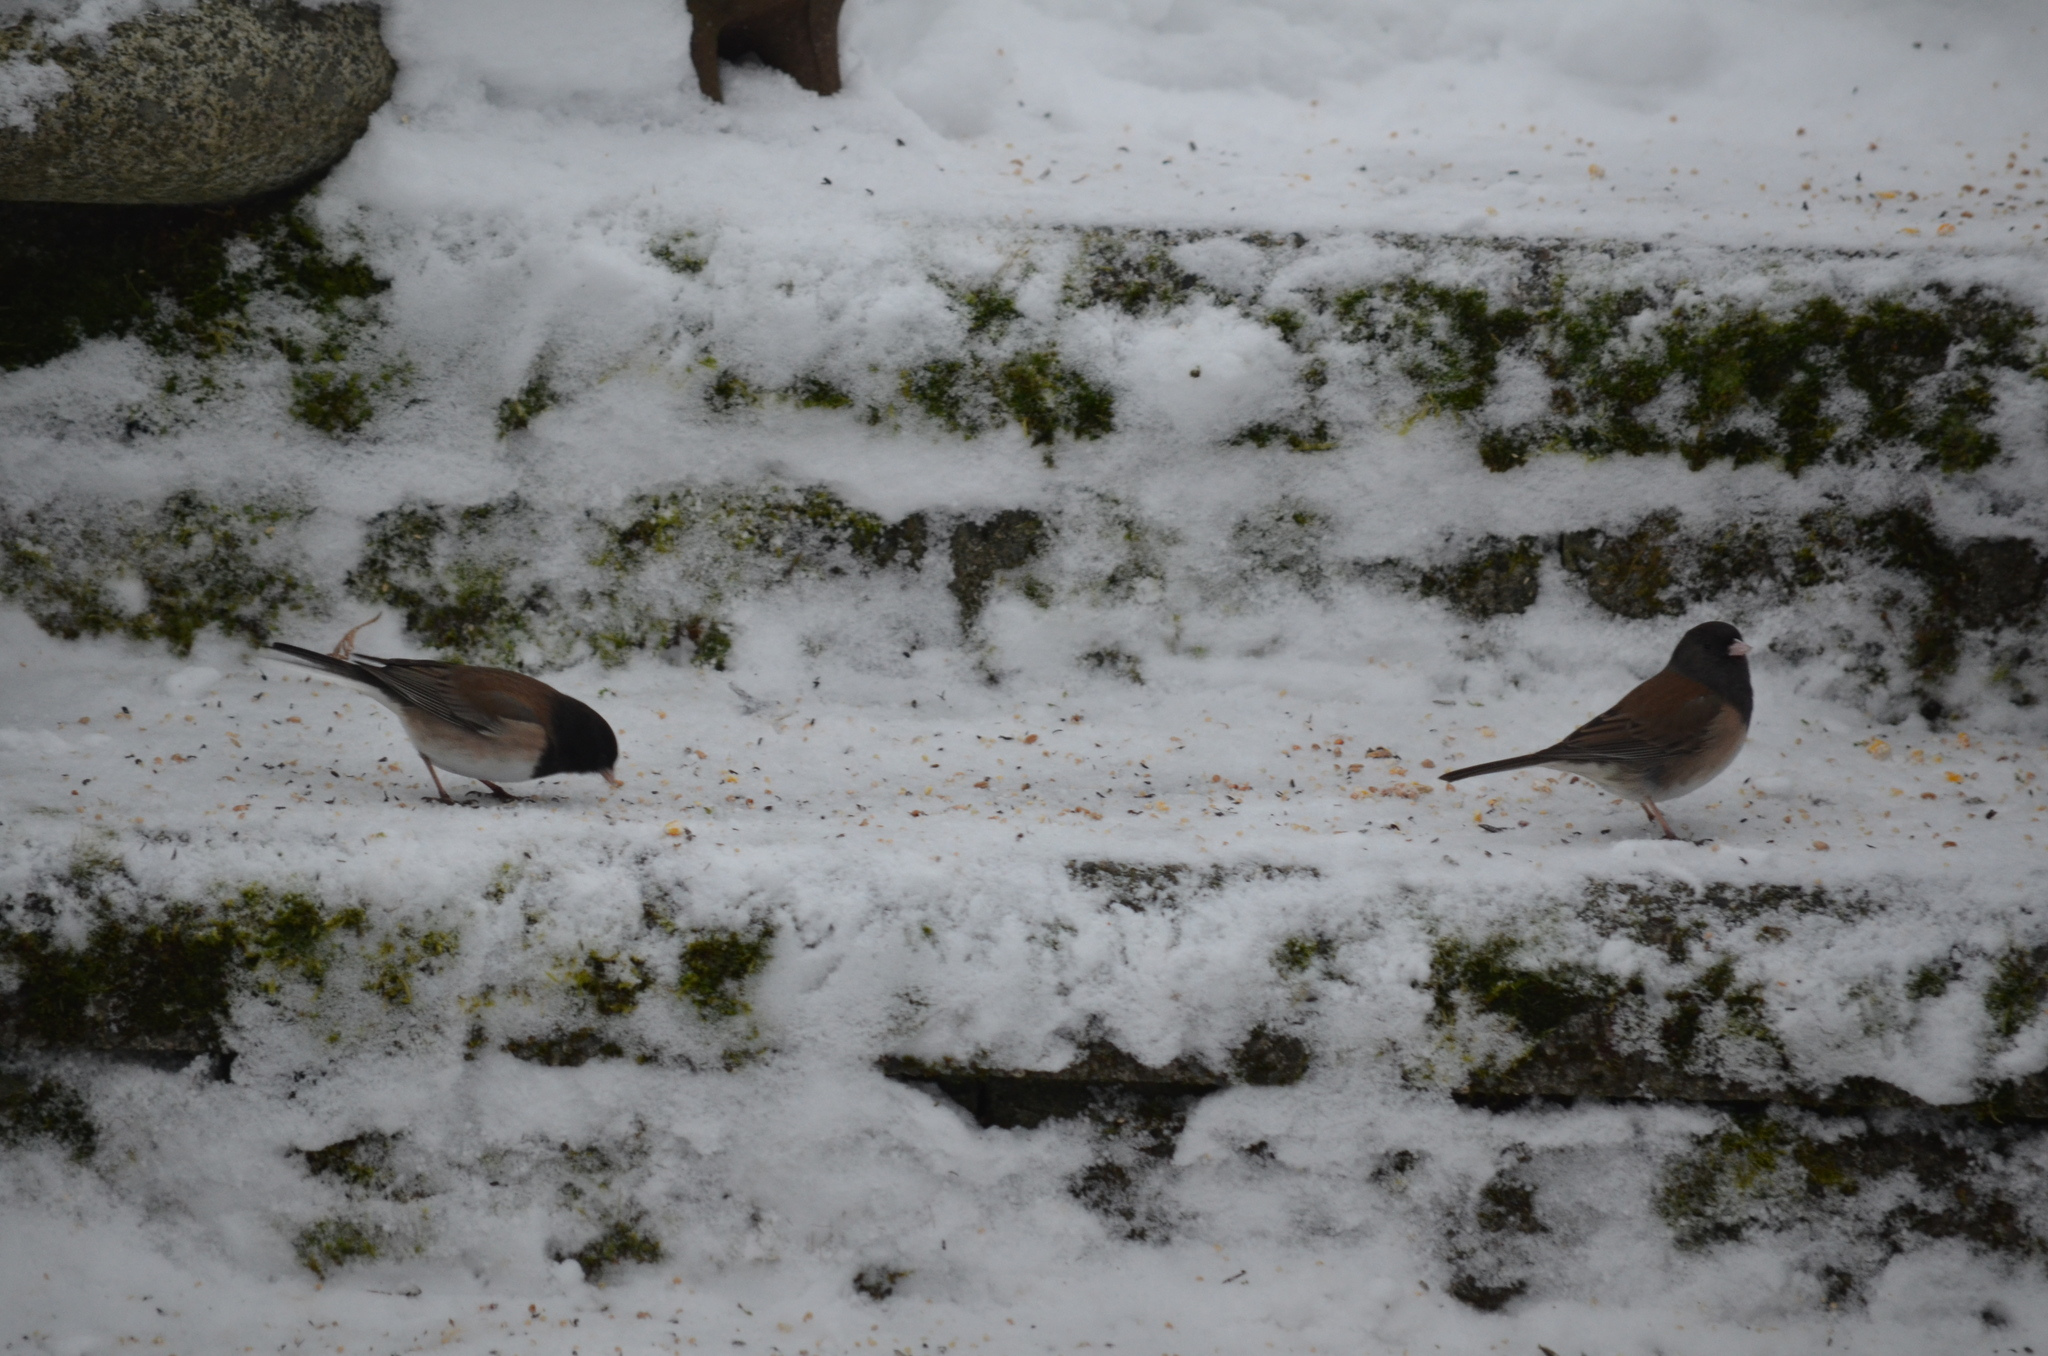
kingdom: Animalia
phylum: Chordata
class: Aves
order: Passeriformes
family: Passerellidae
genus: Junco
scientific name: Junco hyemalis
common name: Dark-eyed junco
